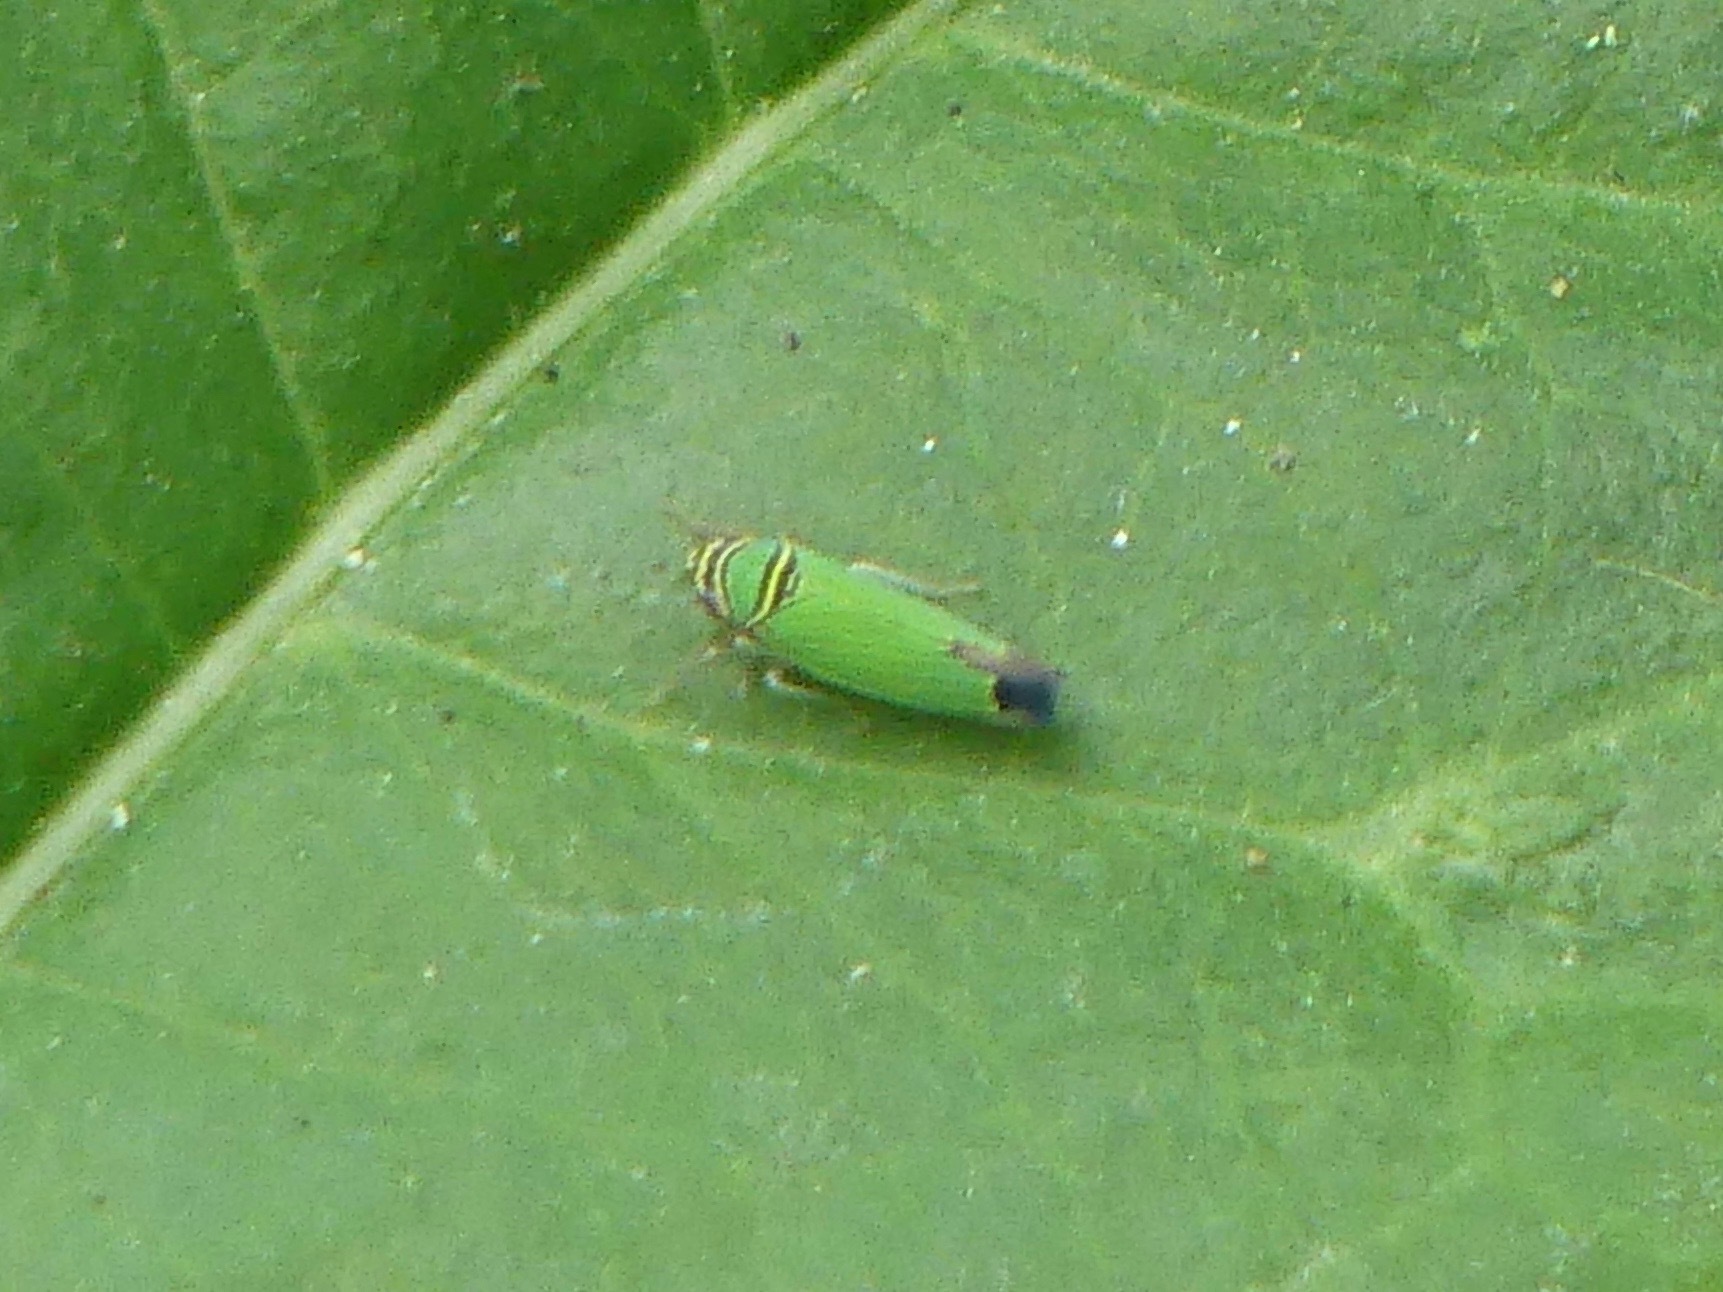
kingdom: Animalia
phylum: Arthropoda
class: Insecta
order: Hemiptera
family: Cicadellidae
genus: Tylozygus
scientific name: Tylozygus geometricus
